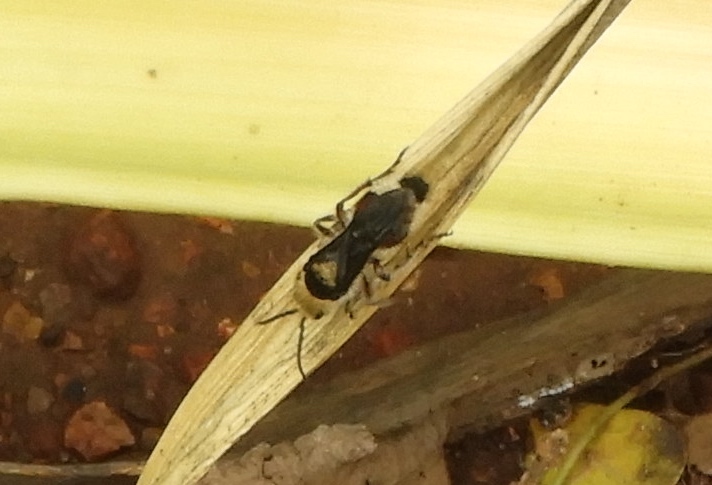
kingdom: Animalia
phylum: Arthropoda
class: Insecta
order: Hymenoptera
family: Mutillidae
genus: Dasymutilla
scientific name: Dasymutilla
